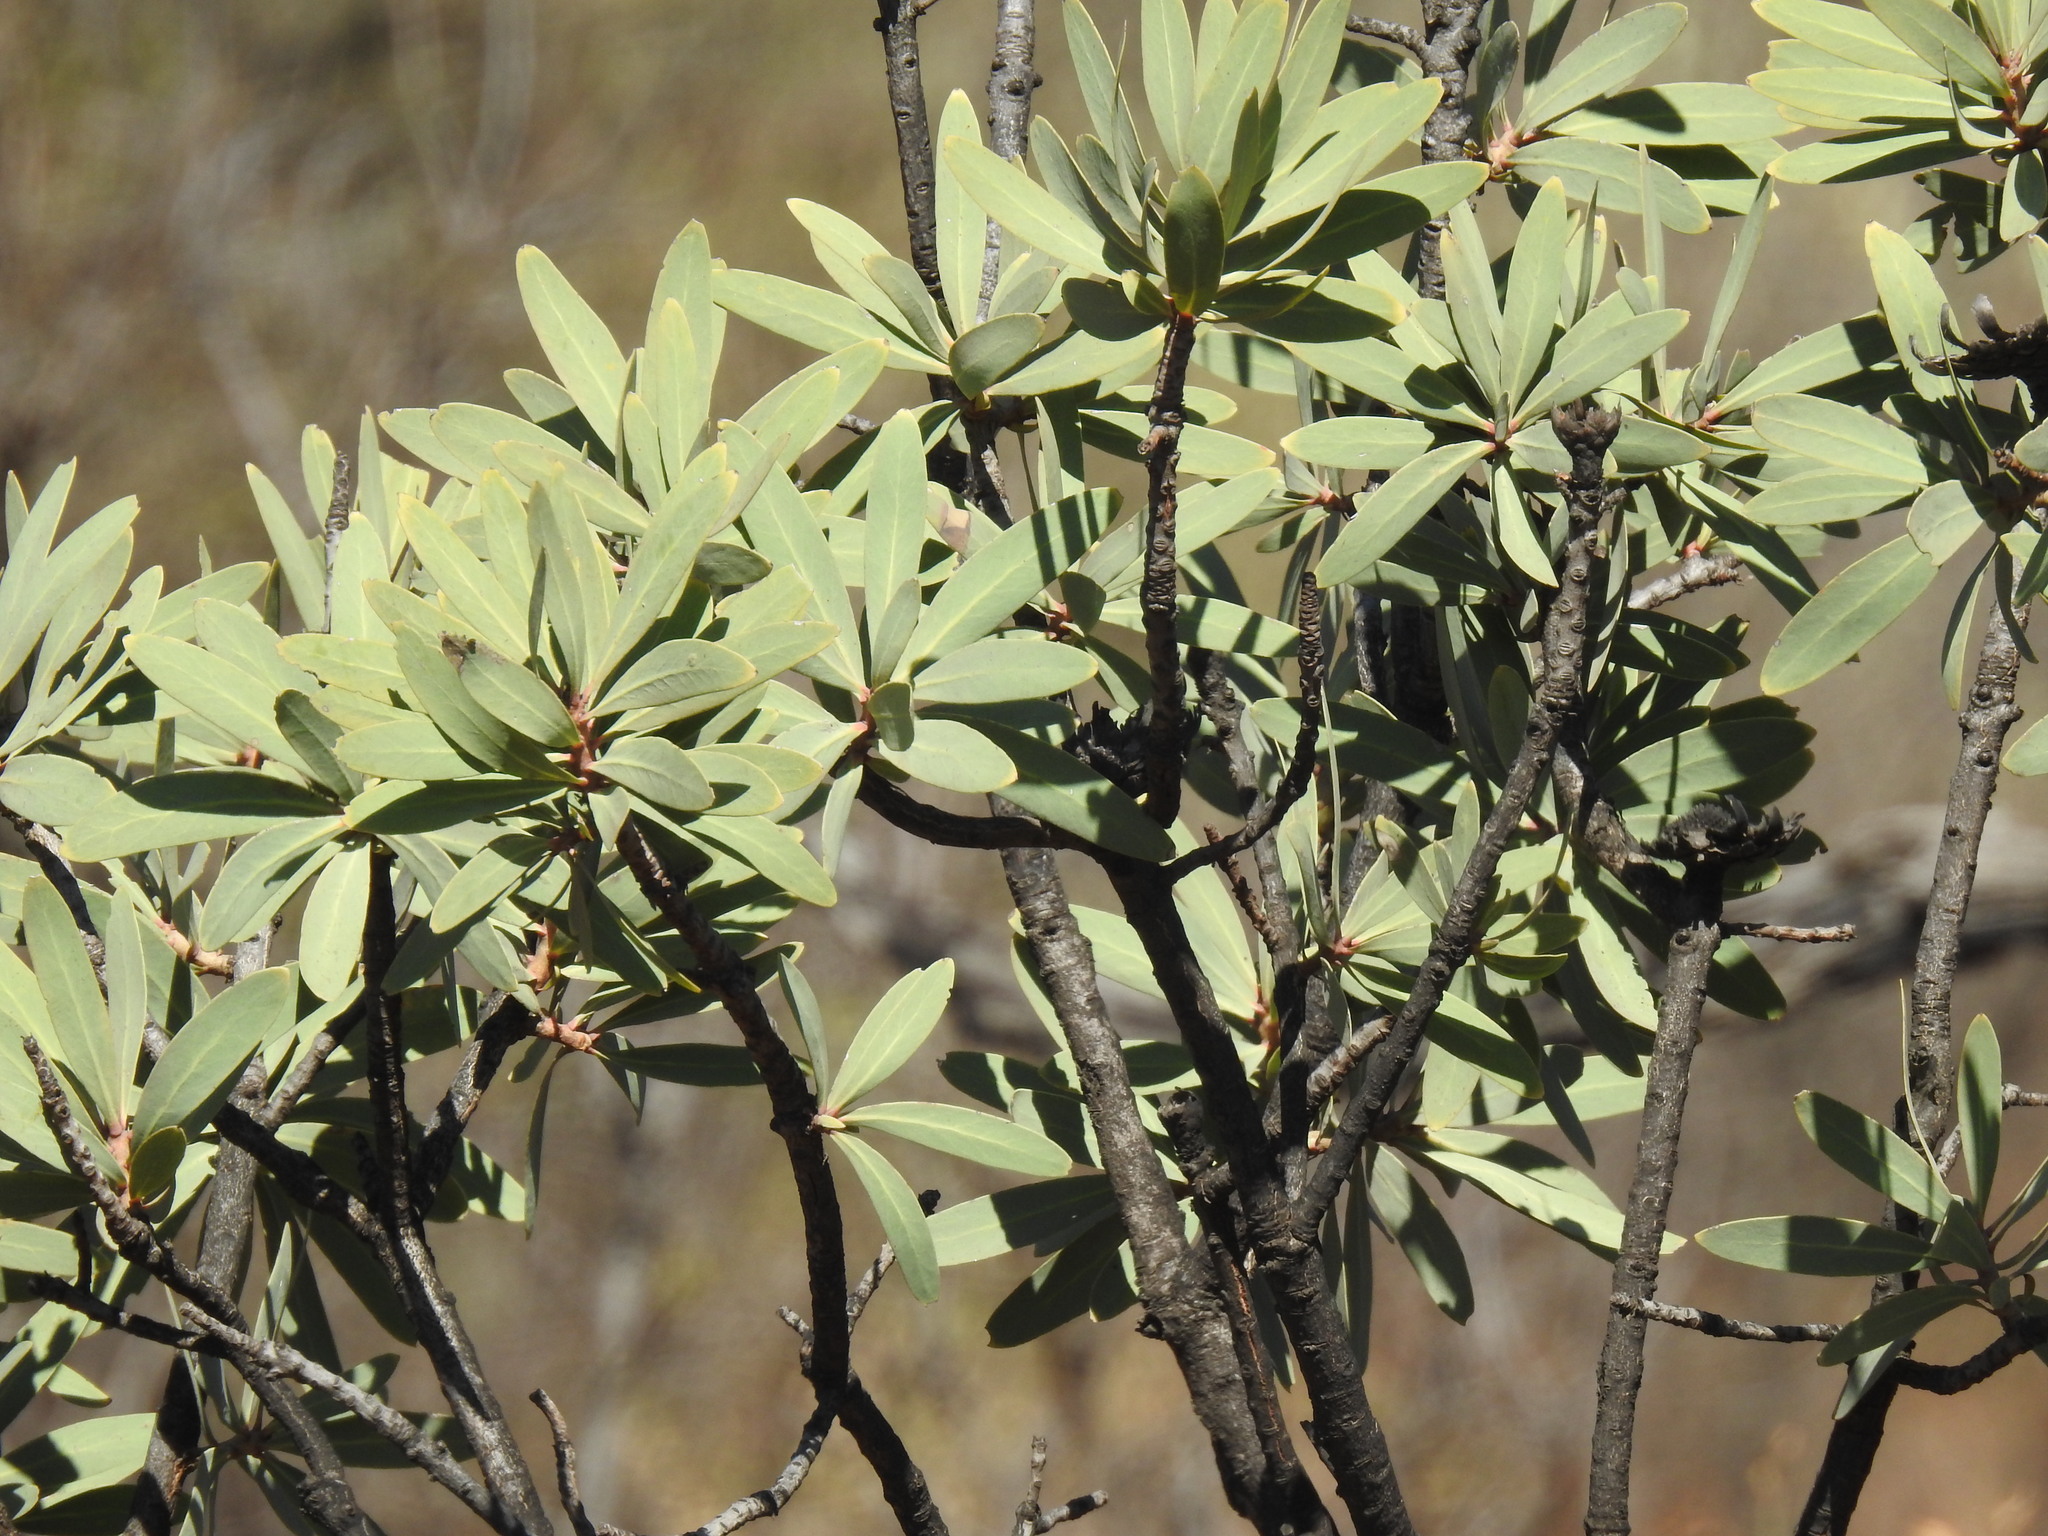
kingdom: Plantae
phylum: Tracheophyta
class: Magnoliopsida
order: Proteales
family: Proteaceae
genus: Protea
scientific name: Protea caffra
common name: Common sugarbush
